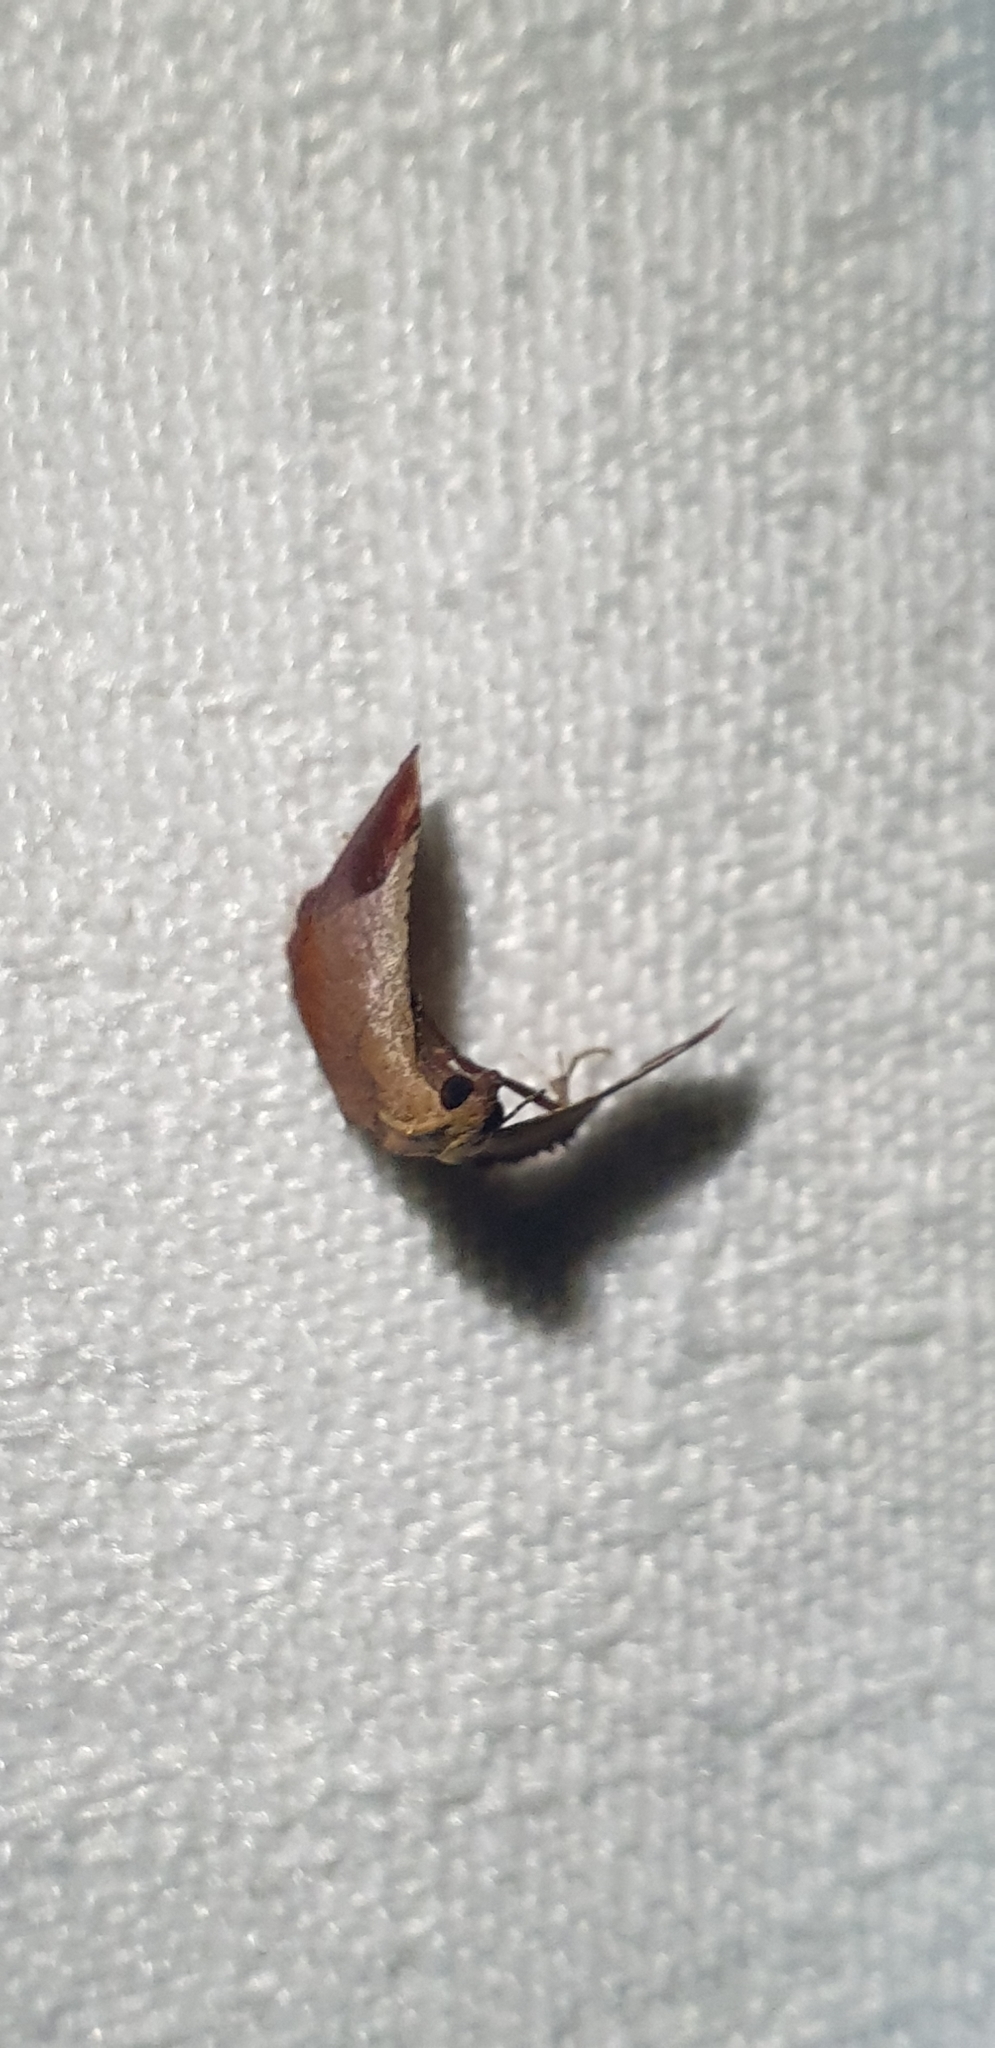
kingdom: Animalia
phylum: Arthropoda
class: Insecta
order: Lepidoptera
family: Pyralidae
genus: Curena
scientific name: Curena externalis
